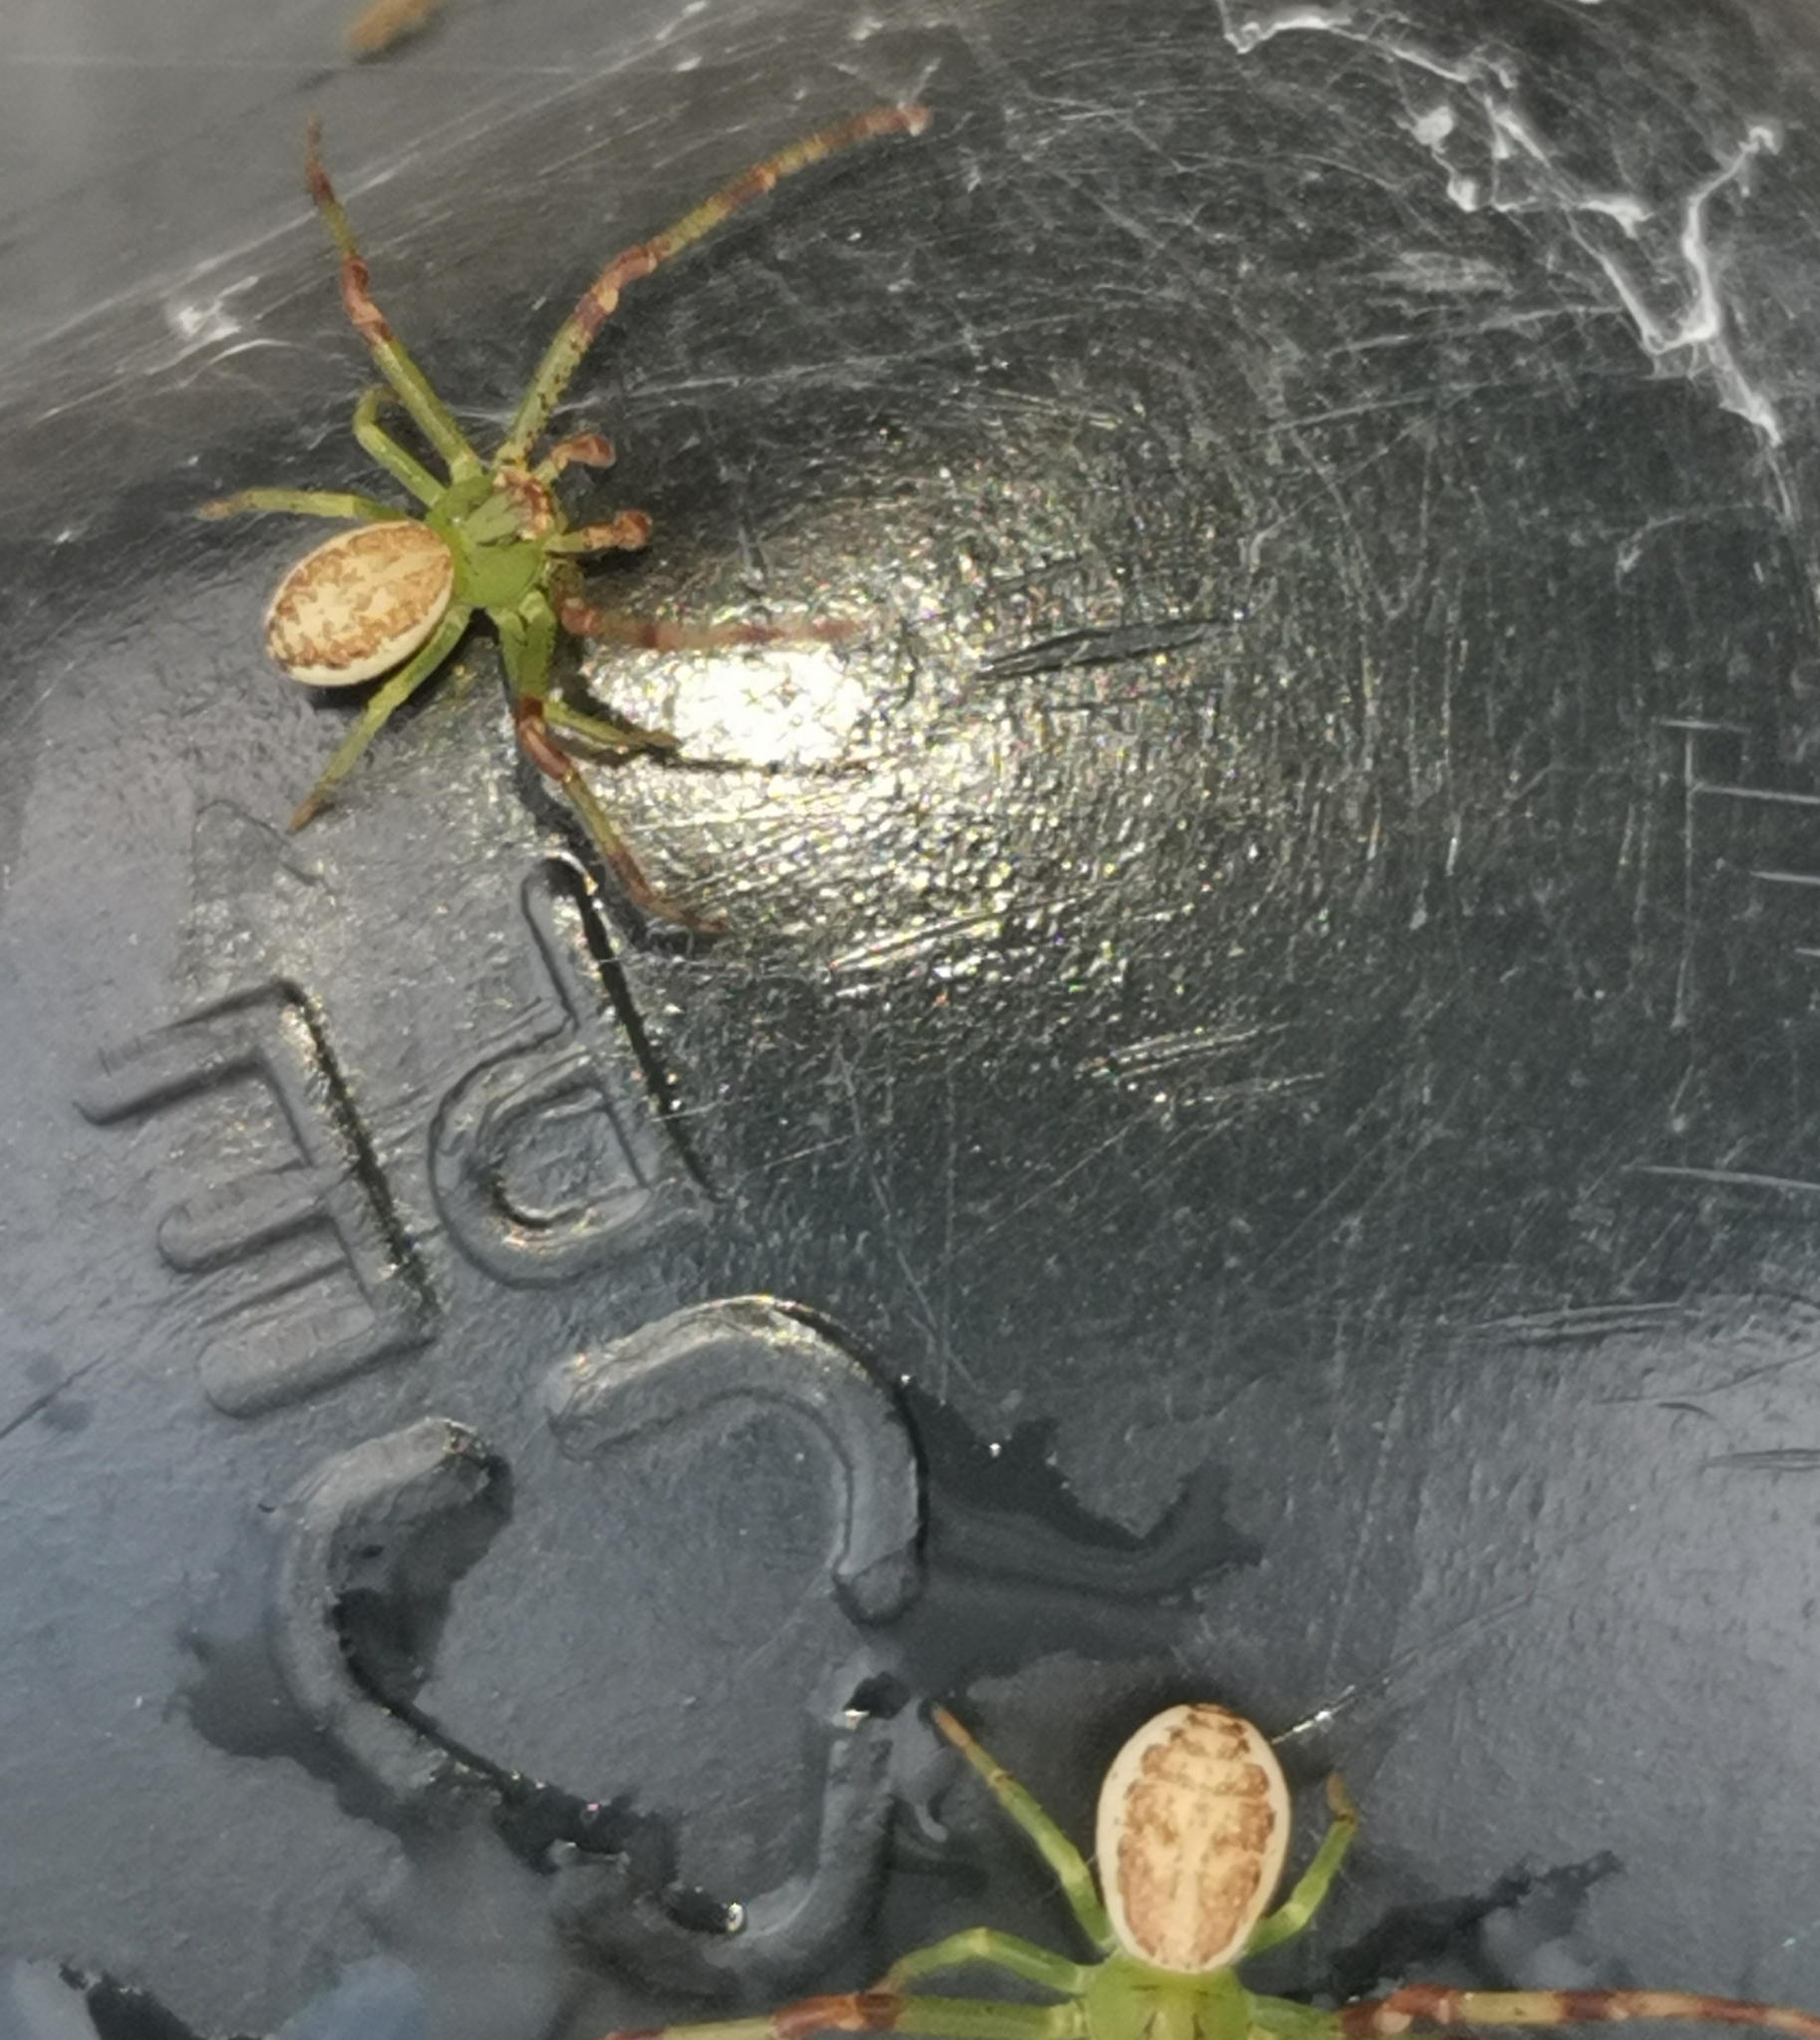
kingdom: Animalia
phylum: Arthropoda
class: Arachnida
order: Araneae
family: Thomisidae
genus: Diaea
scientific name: Diaea dorsata
